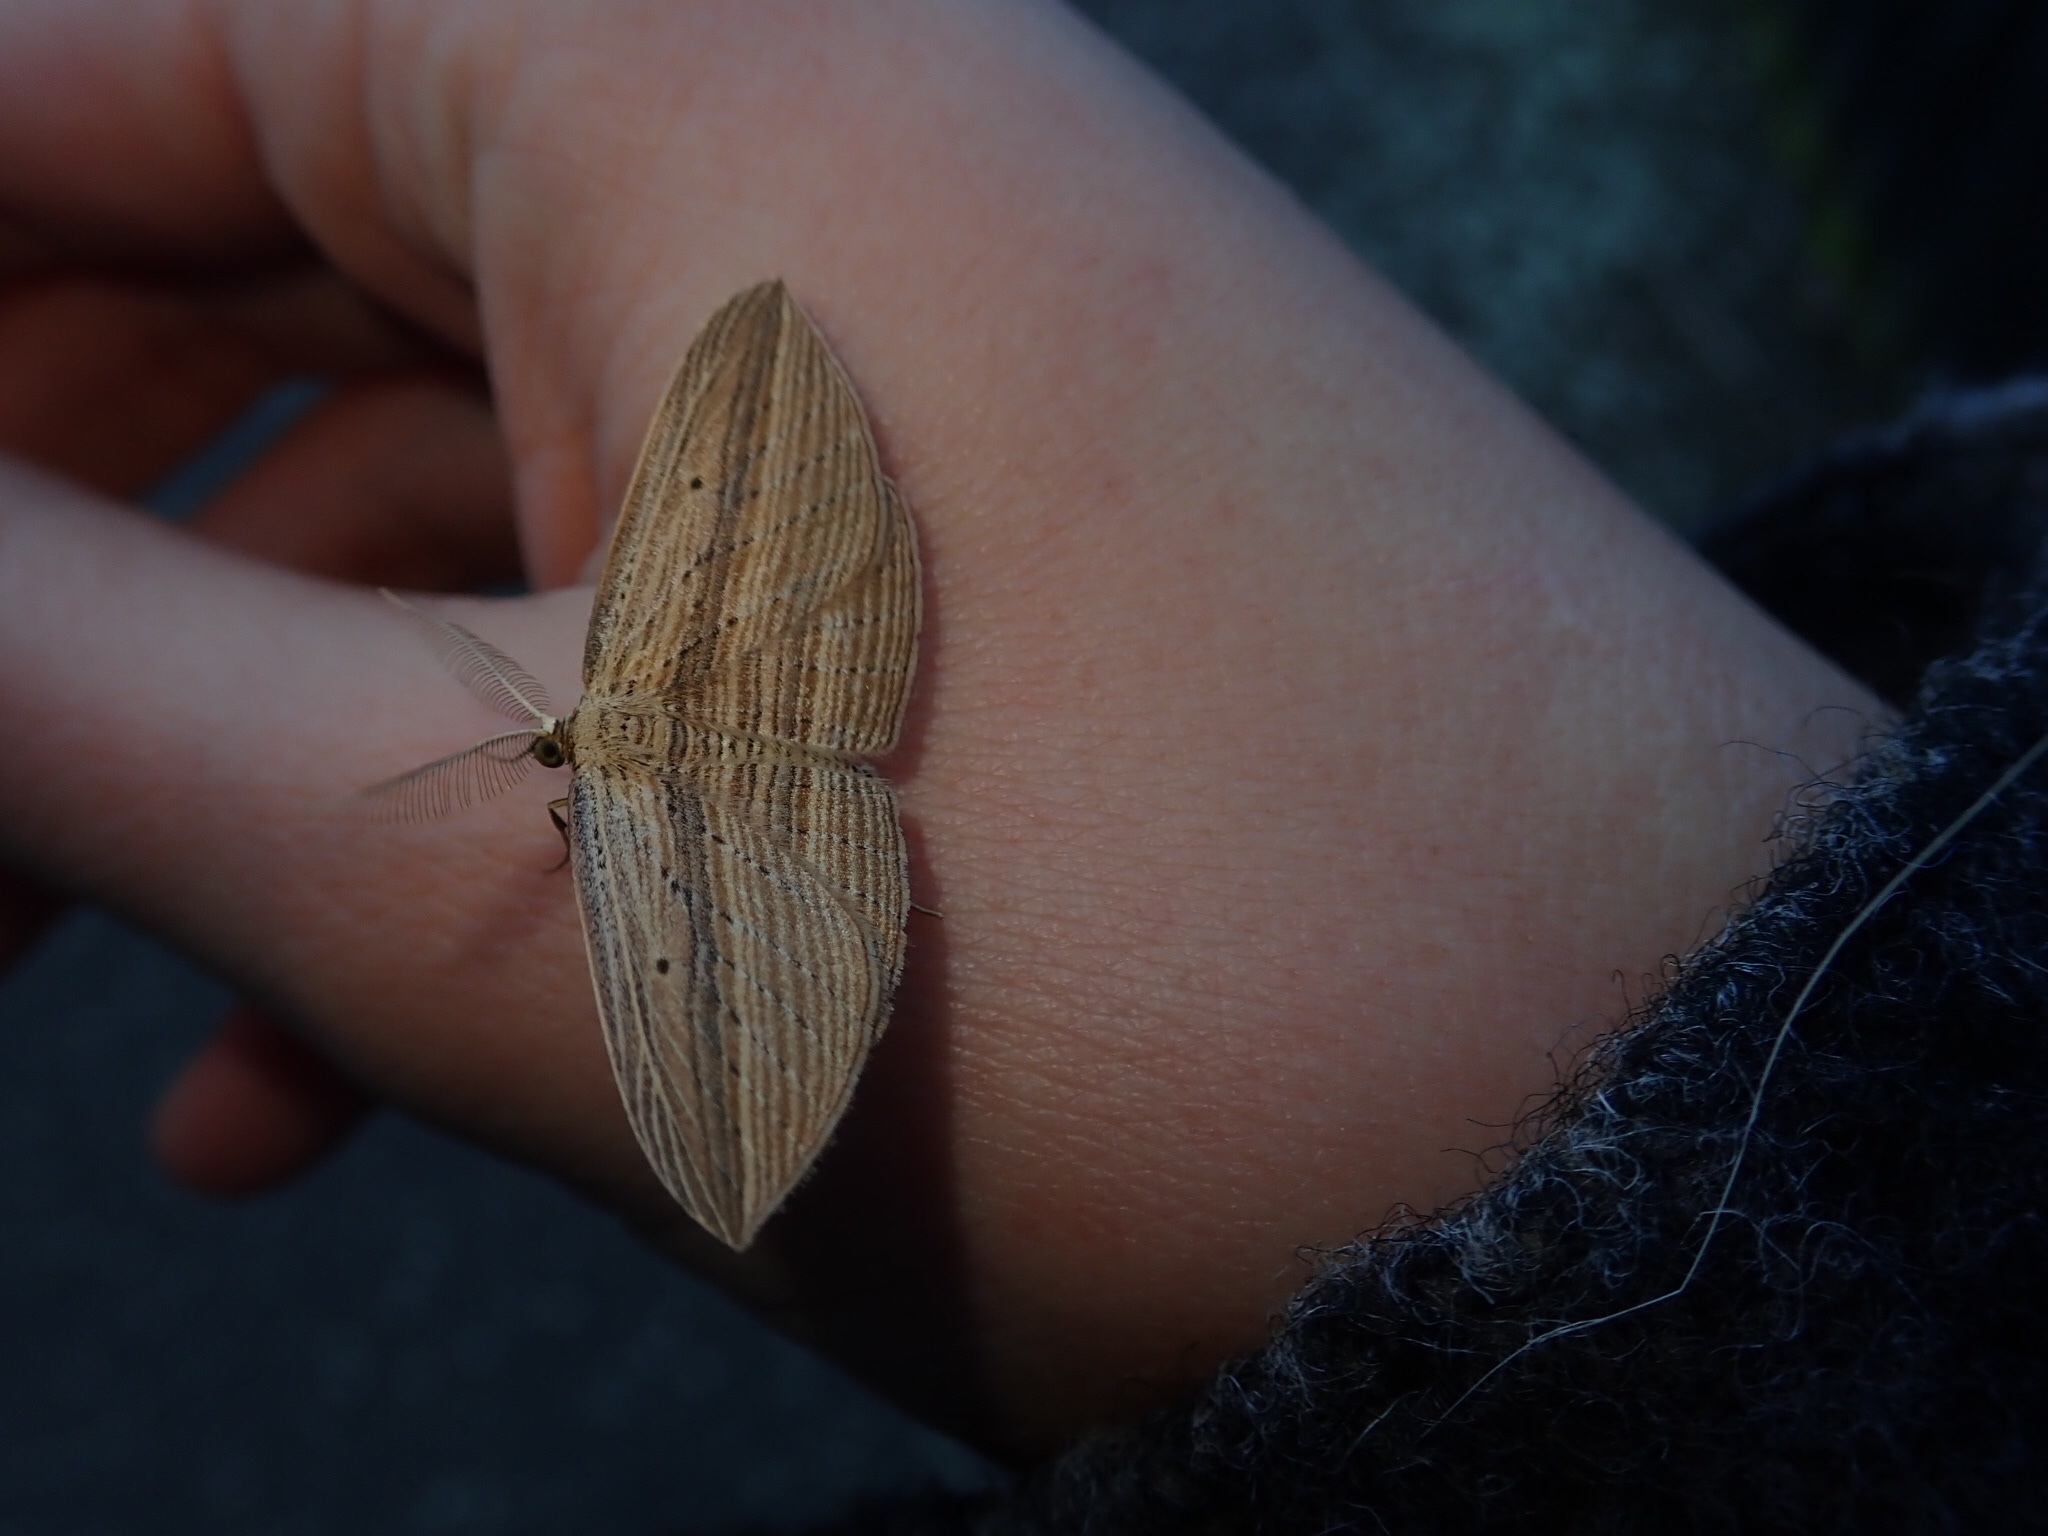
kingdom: Animalia
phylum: Arthropoda
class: Insecta
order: Lepidoptera
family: Geometridae
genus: Epiphryne
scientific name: Epiphryne verriculata
